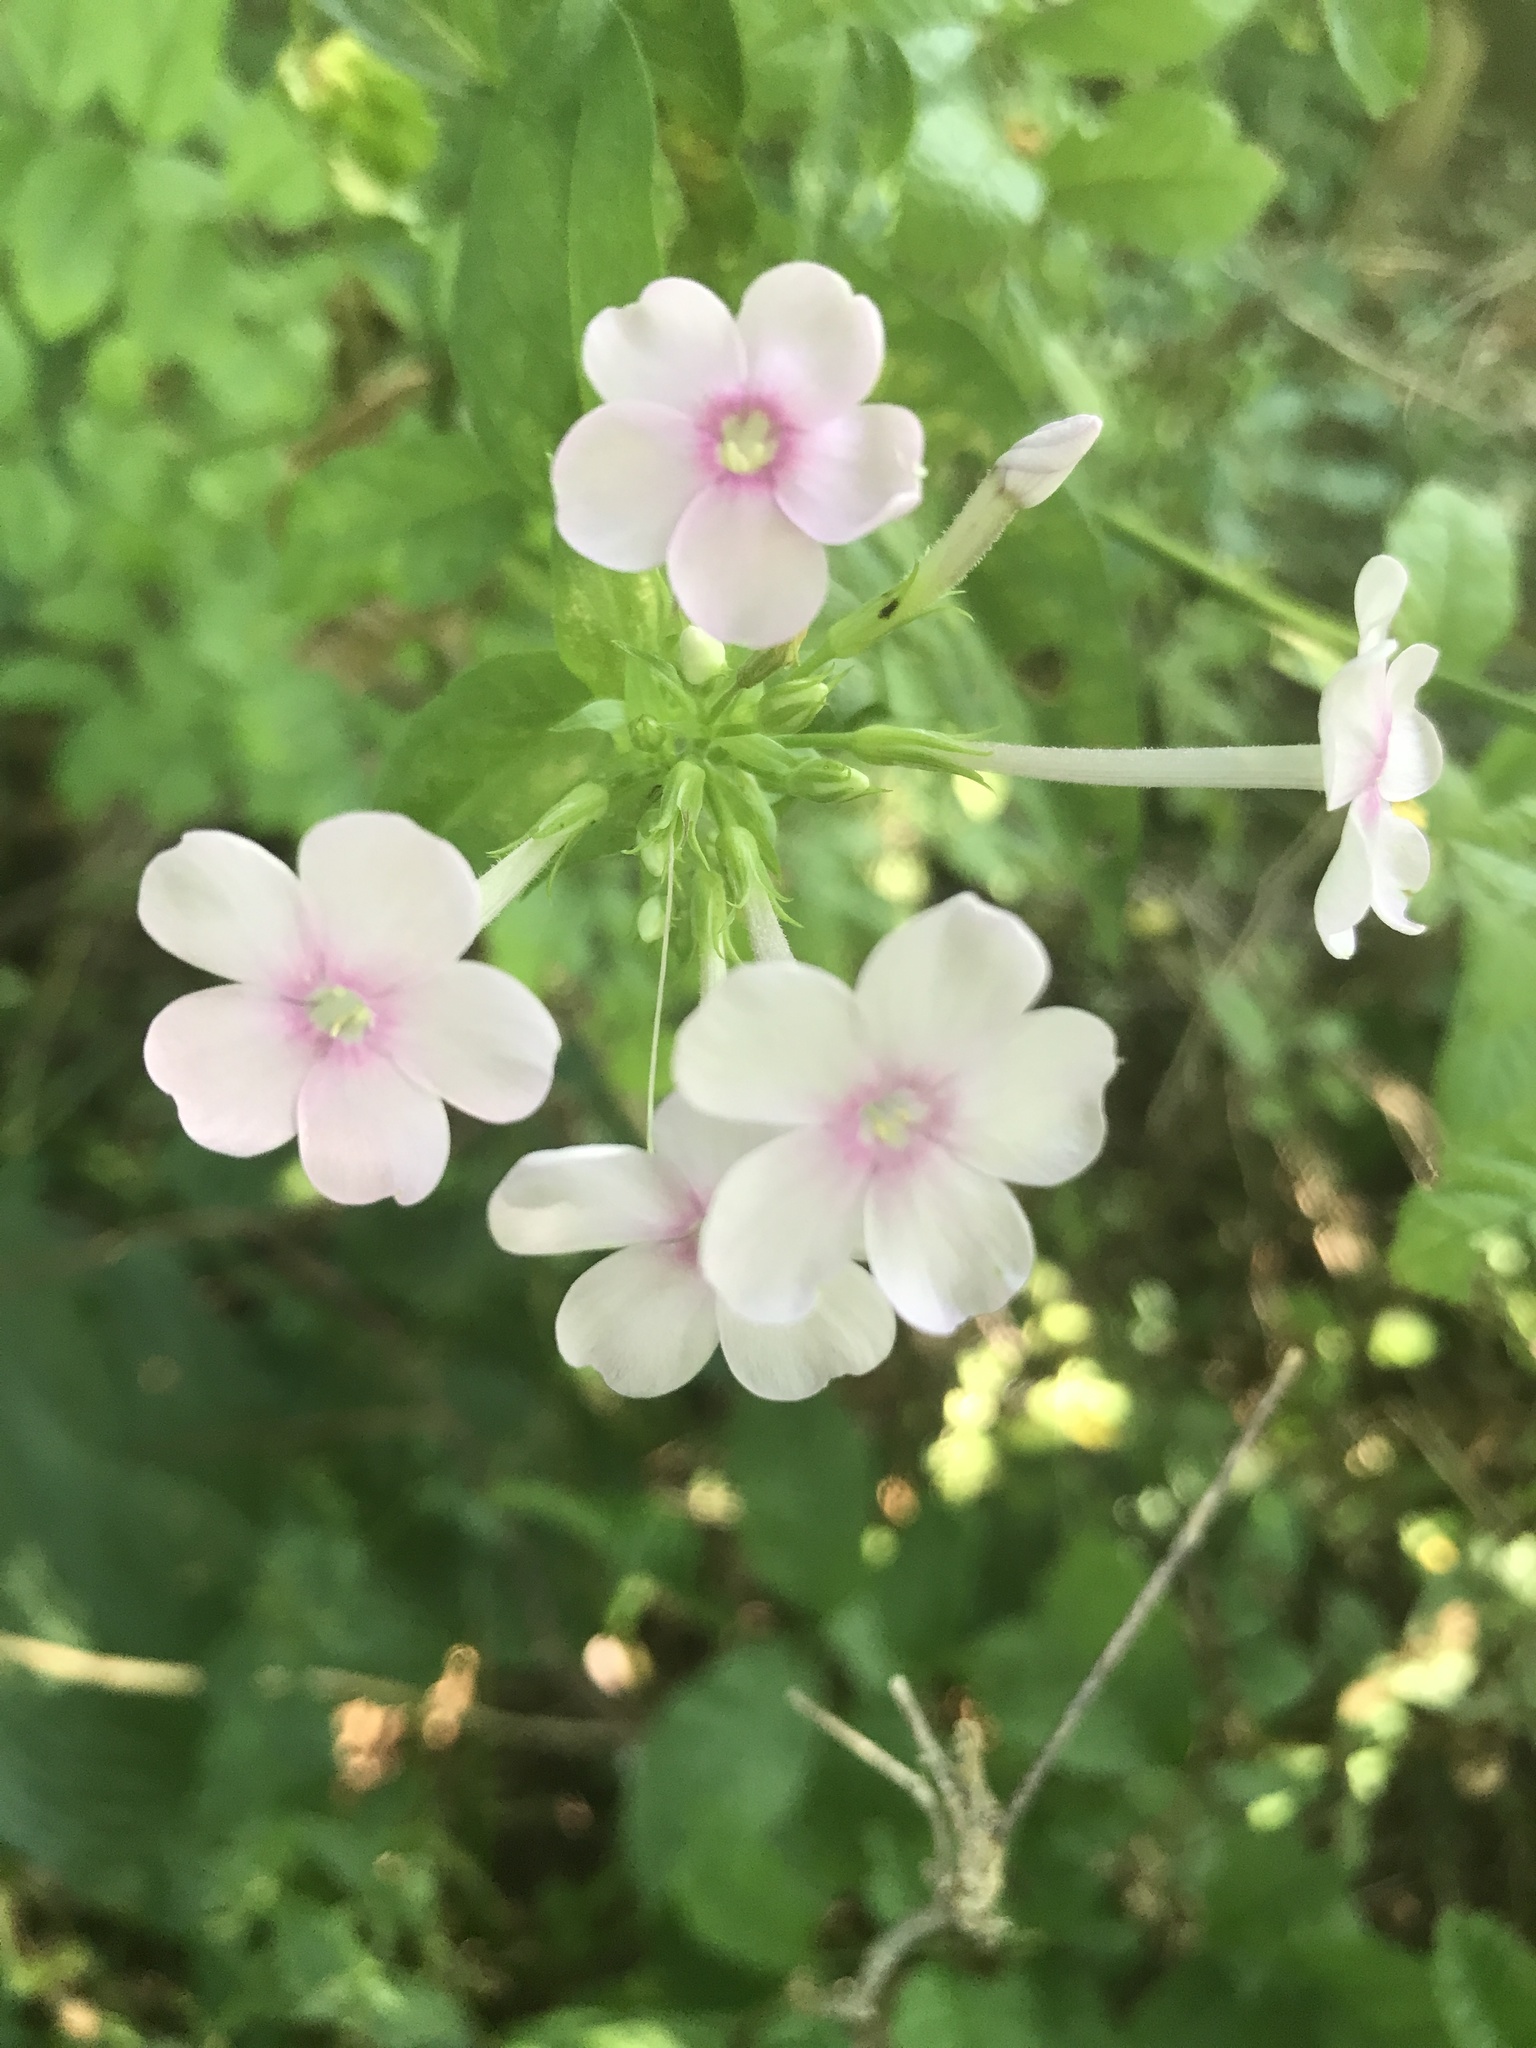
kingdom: Plantae
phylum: Tracheophyta
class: Magnoliopsida
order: Ericales
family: Polemoniaceae
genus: Phlox
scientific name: Phlox paniculata
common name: Fall phlox
